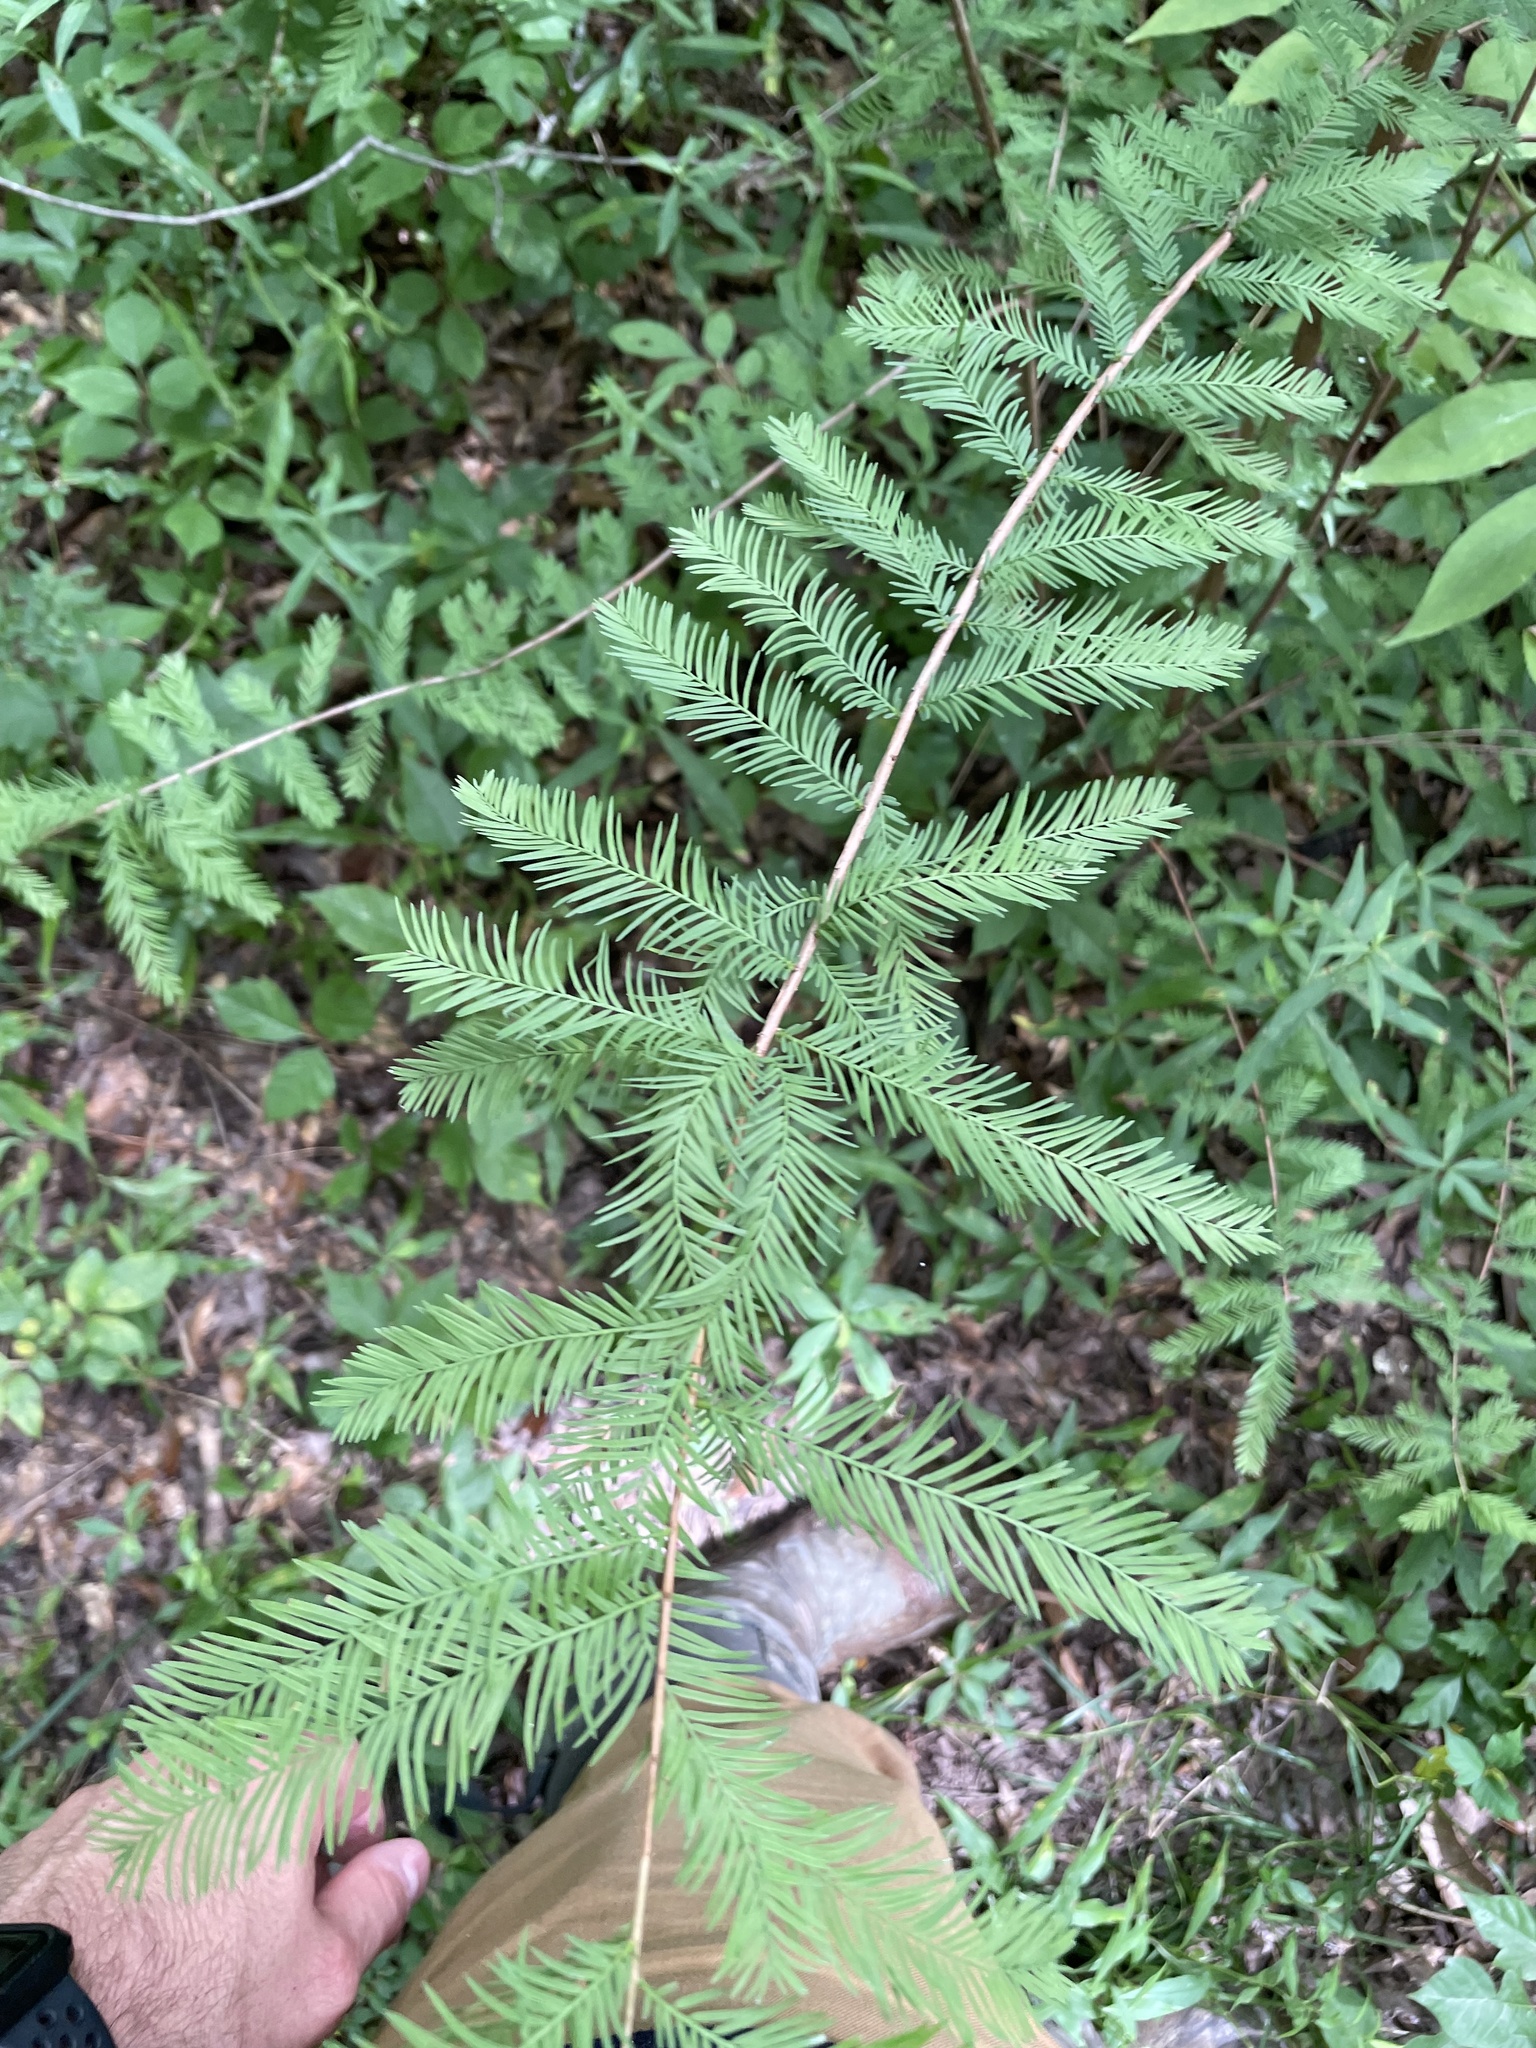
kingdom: Plantae
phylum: Tracheophyta
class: Pinopsida
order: Pinales
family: Cupressaceae
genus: Taxodium
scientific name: Taxodium distichum
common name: Bald cypress
